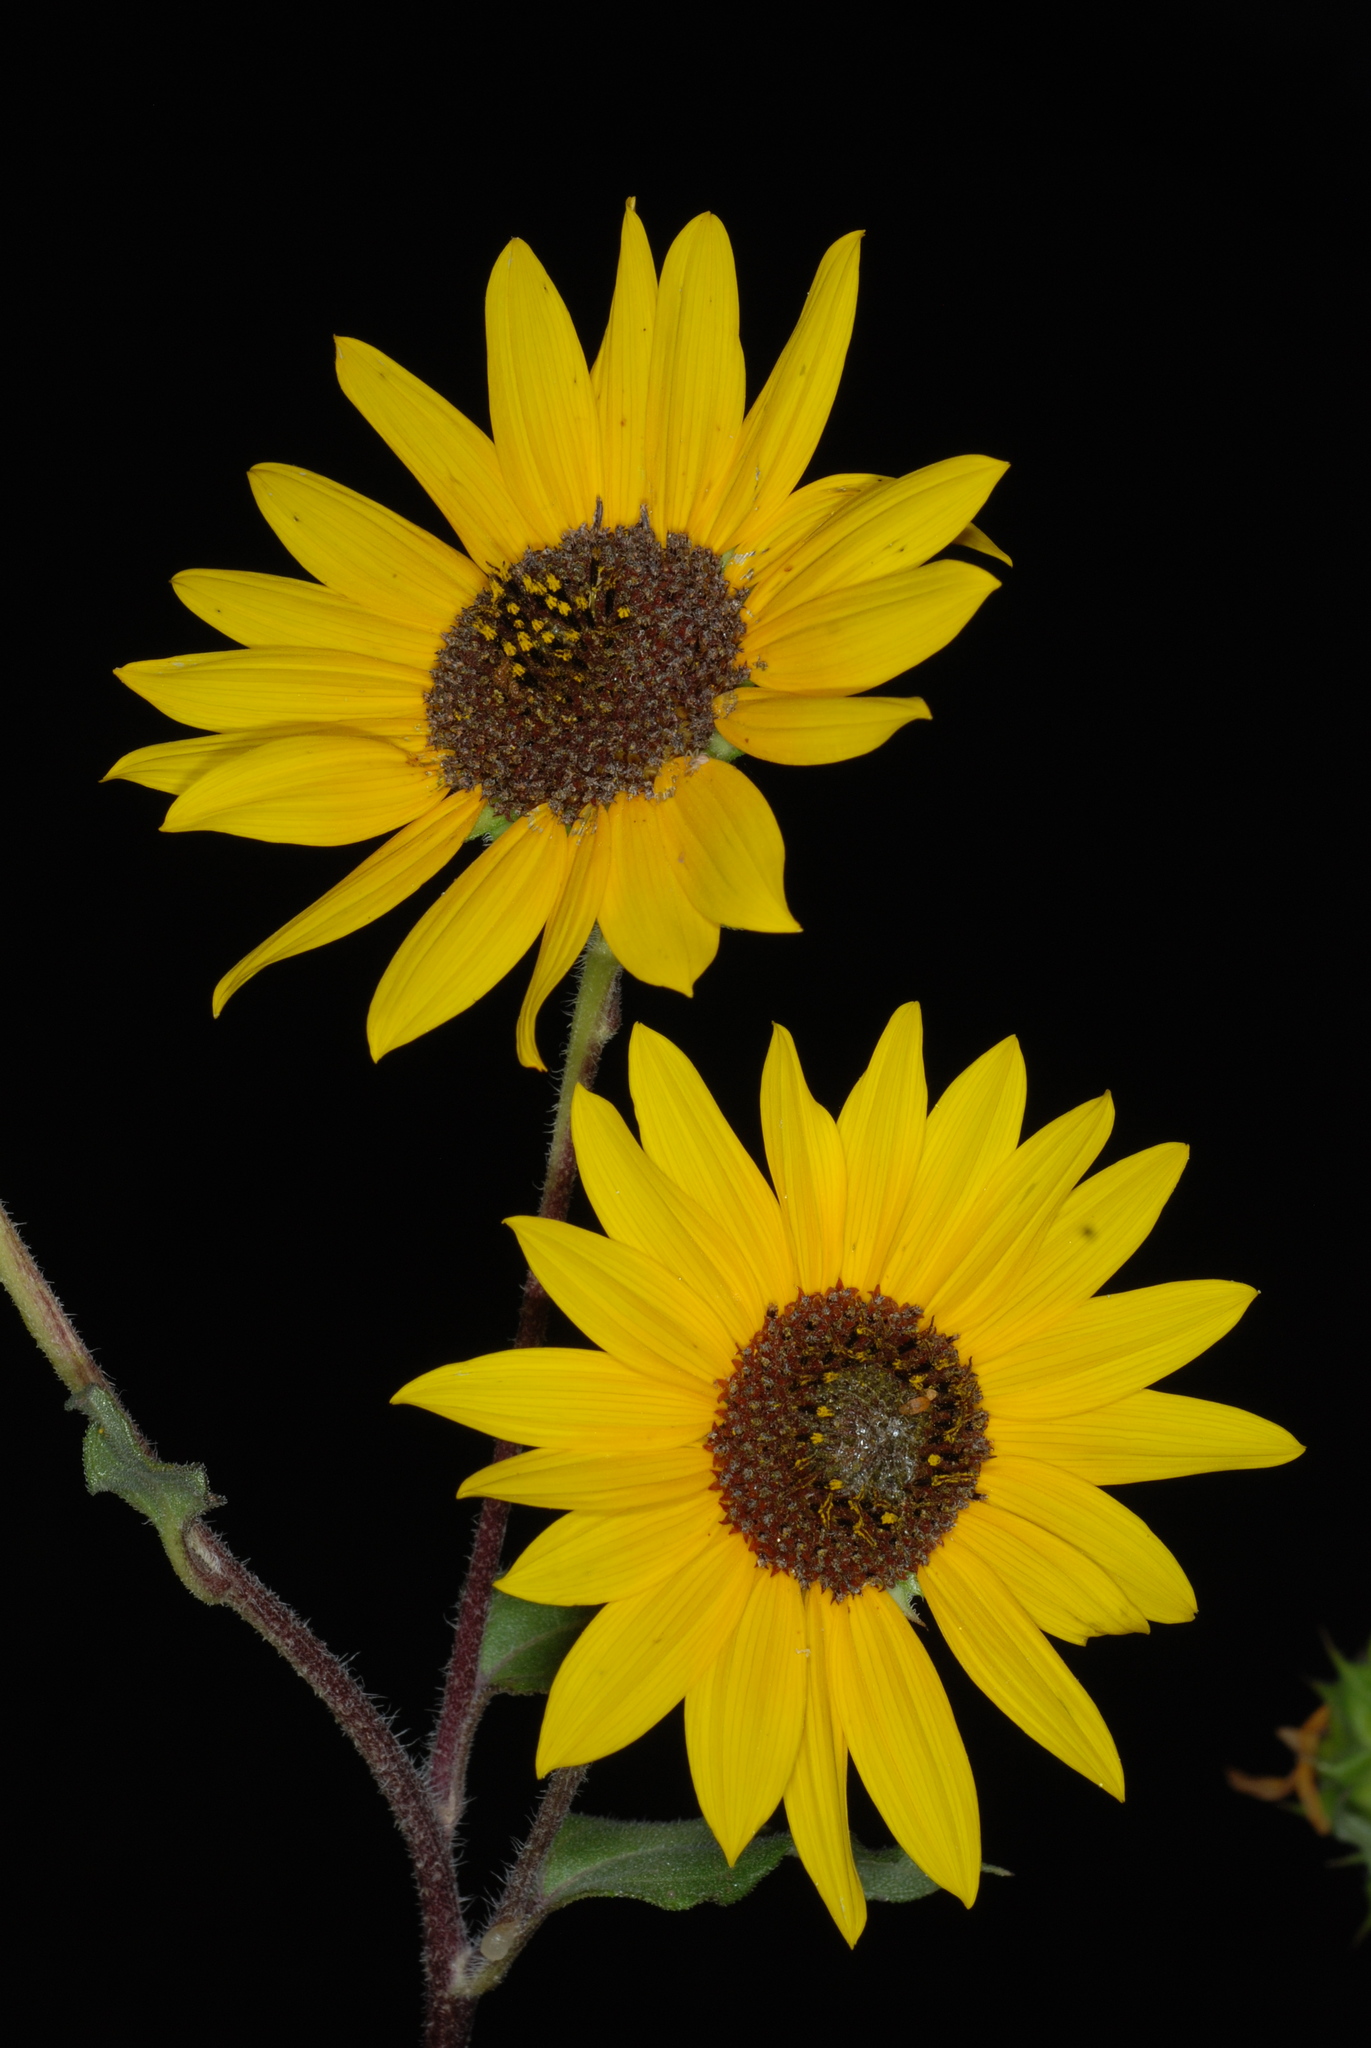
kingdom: Plantae
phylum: Tracheophyta
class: Magnoliopsida
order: Asterales
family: Asteraceae
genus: Helianthus
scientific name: Helianthus annuus
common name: Sunflower
